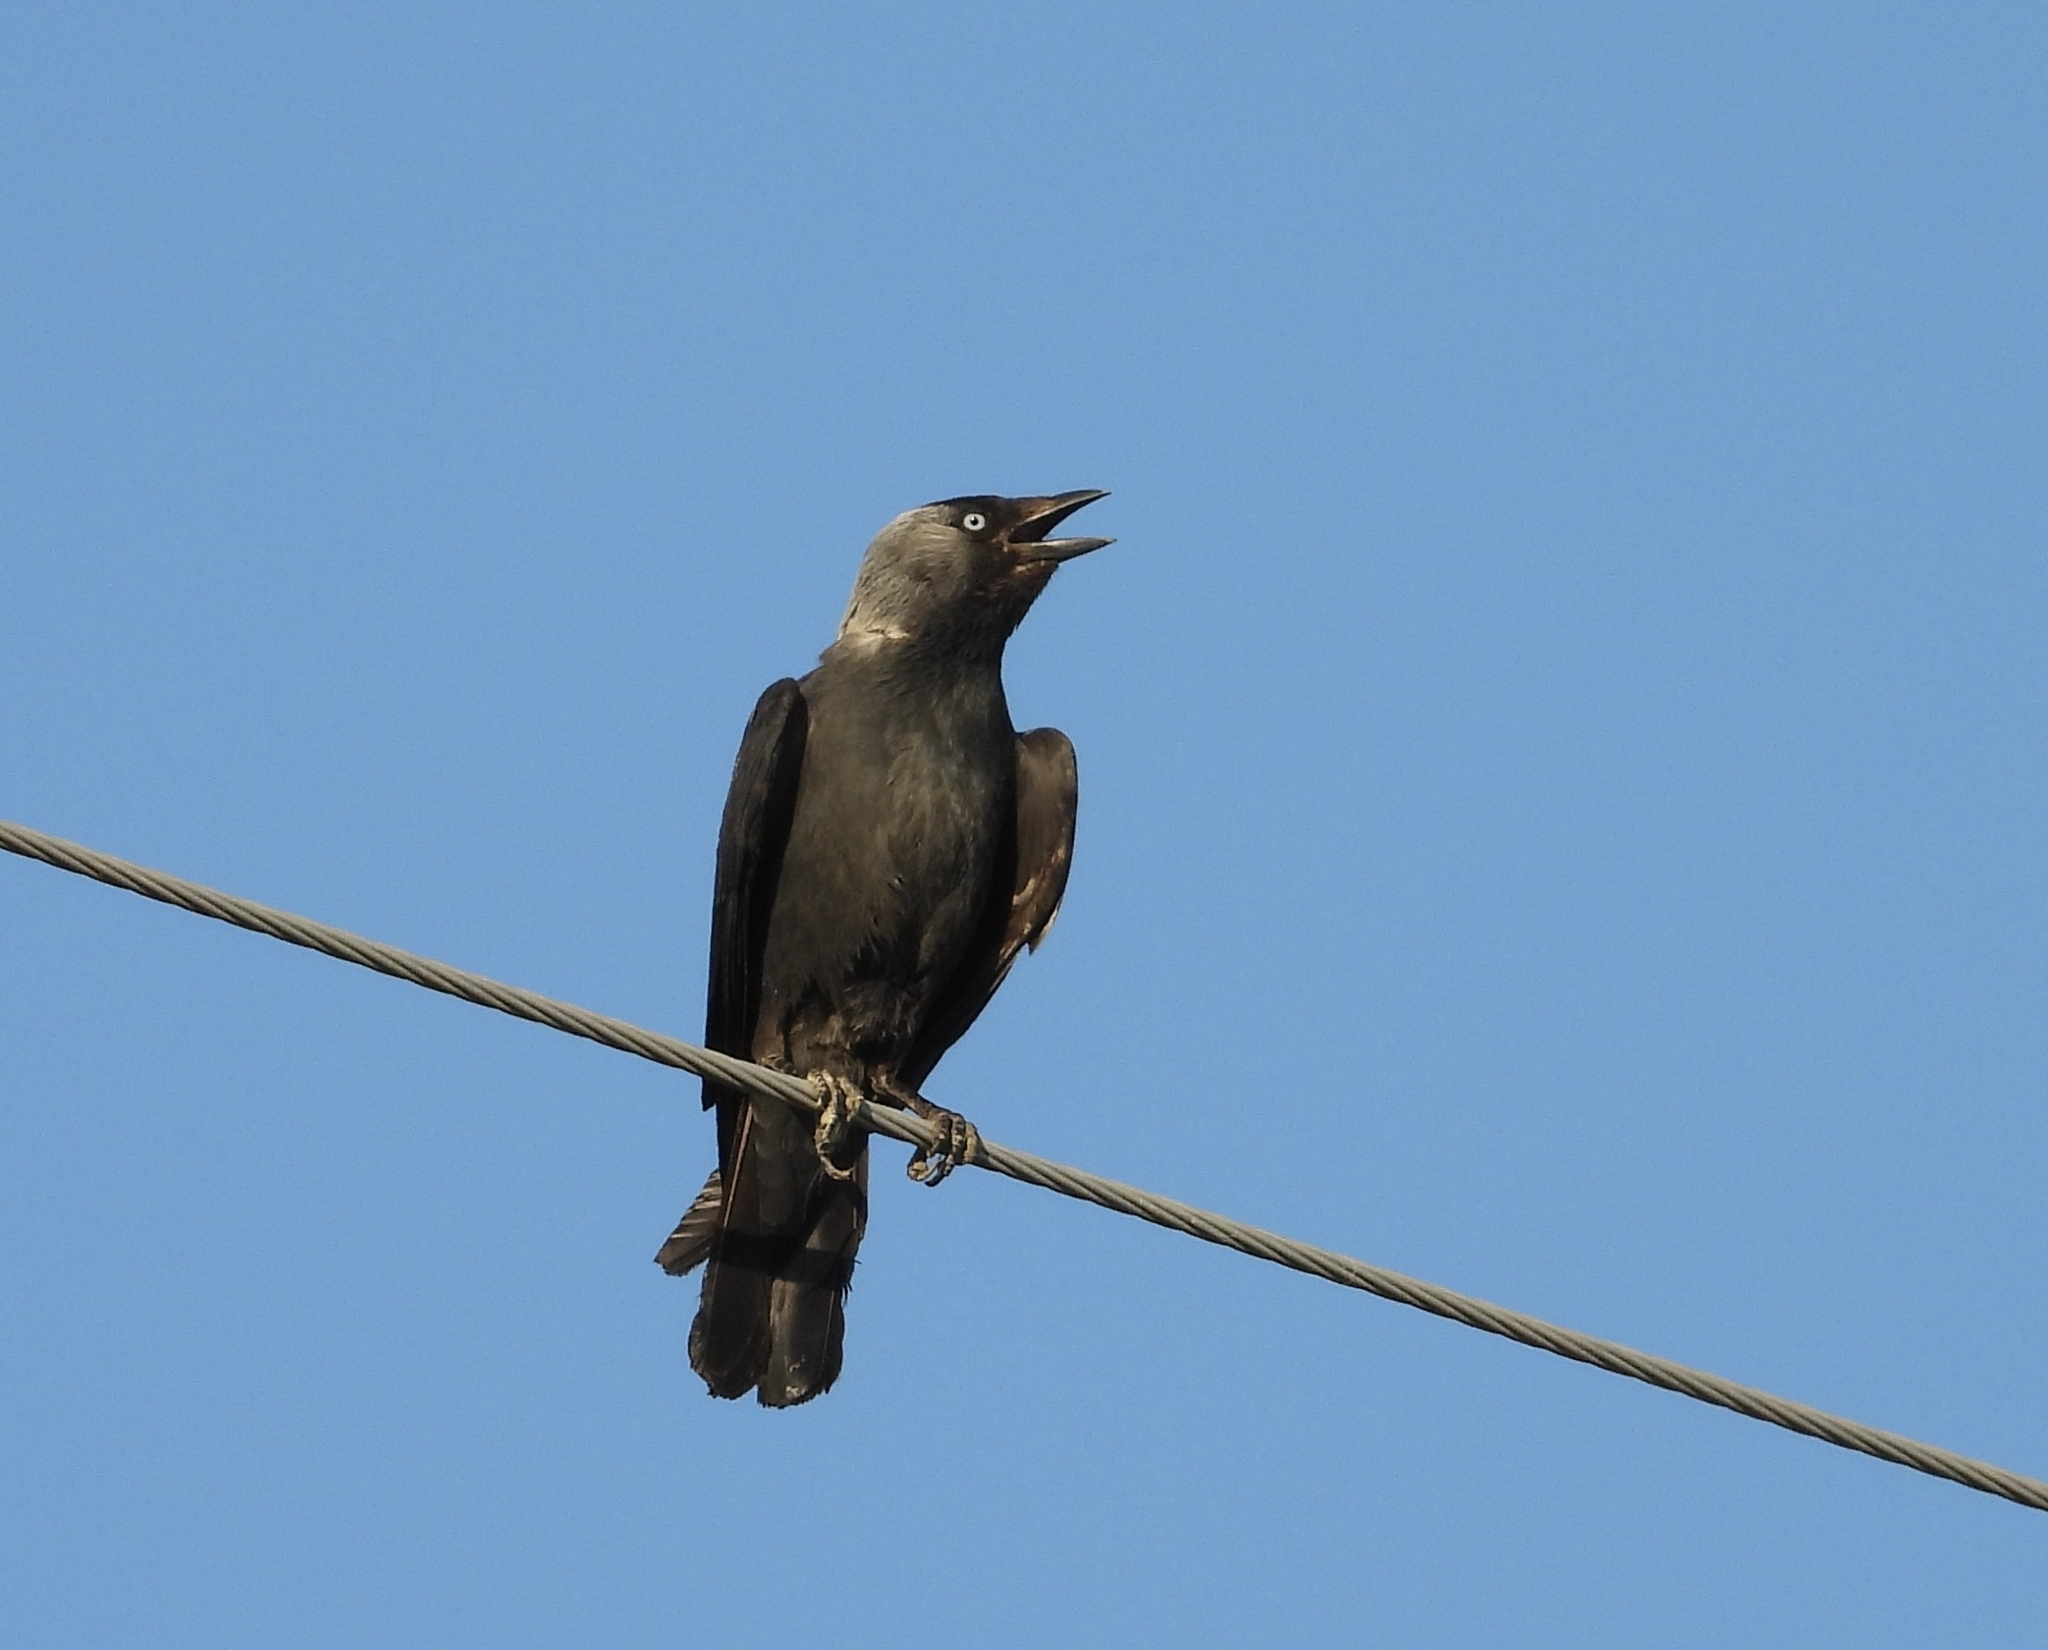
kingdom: Animalia
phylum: Chordata
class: Aves
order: Passeriformes
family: Corvidae
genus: Coloeus
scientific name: Coloeus monedula
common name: Western jackdaw
